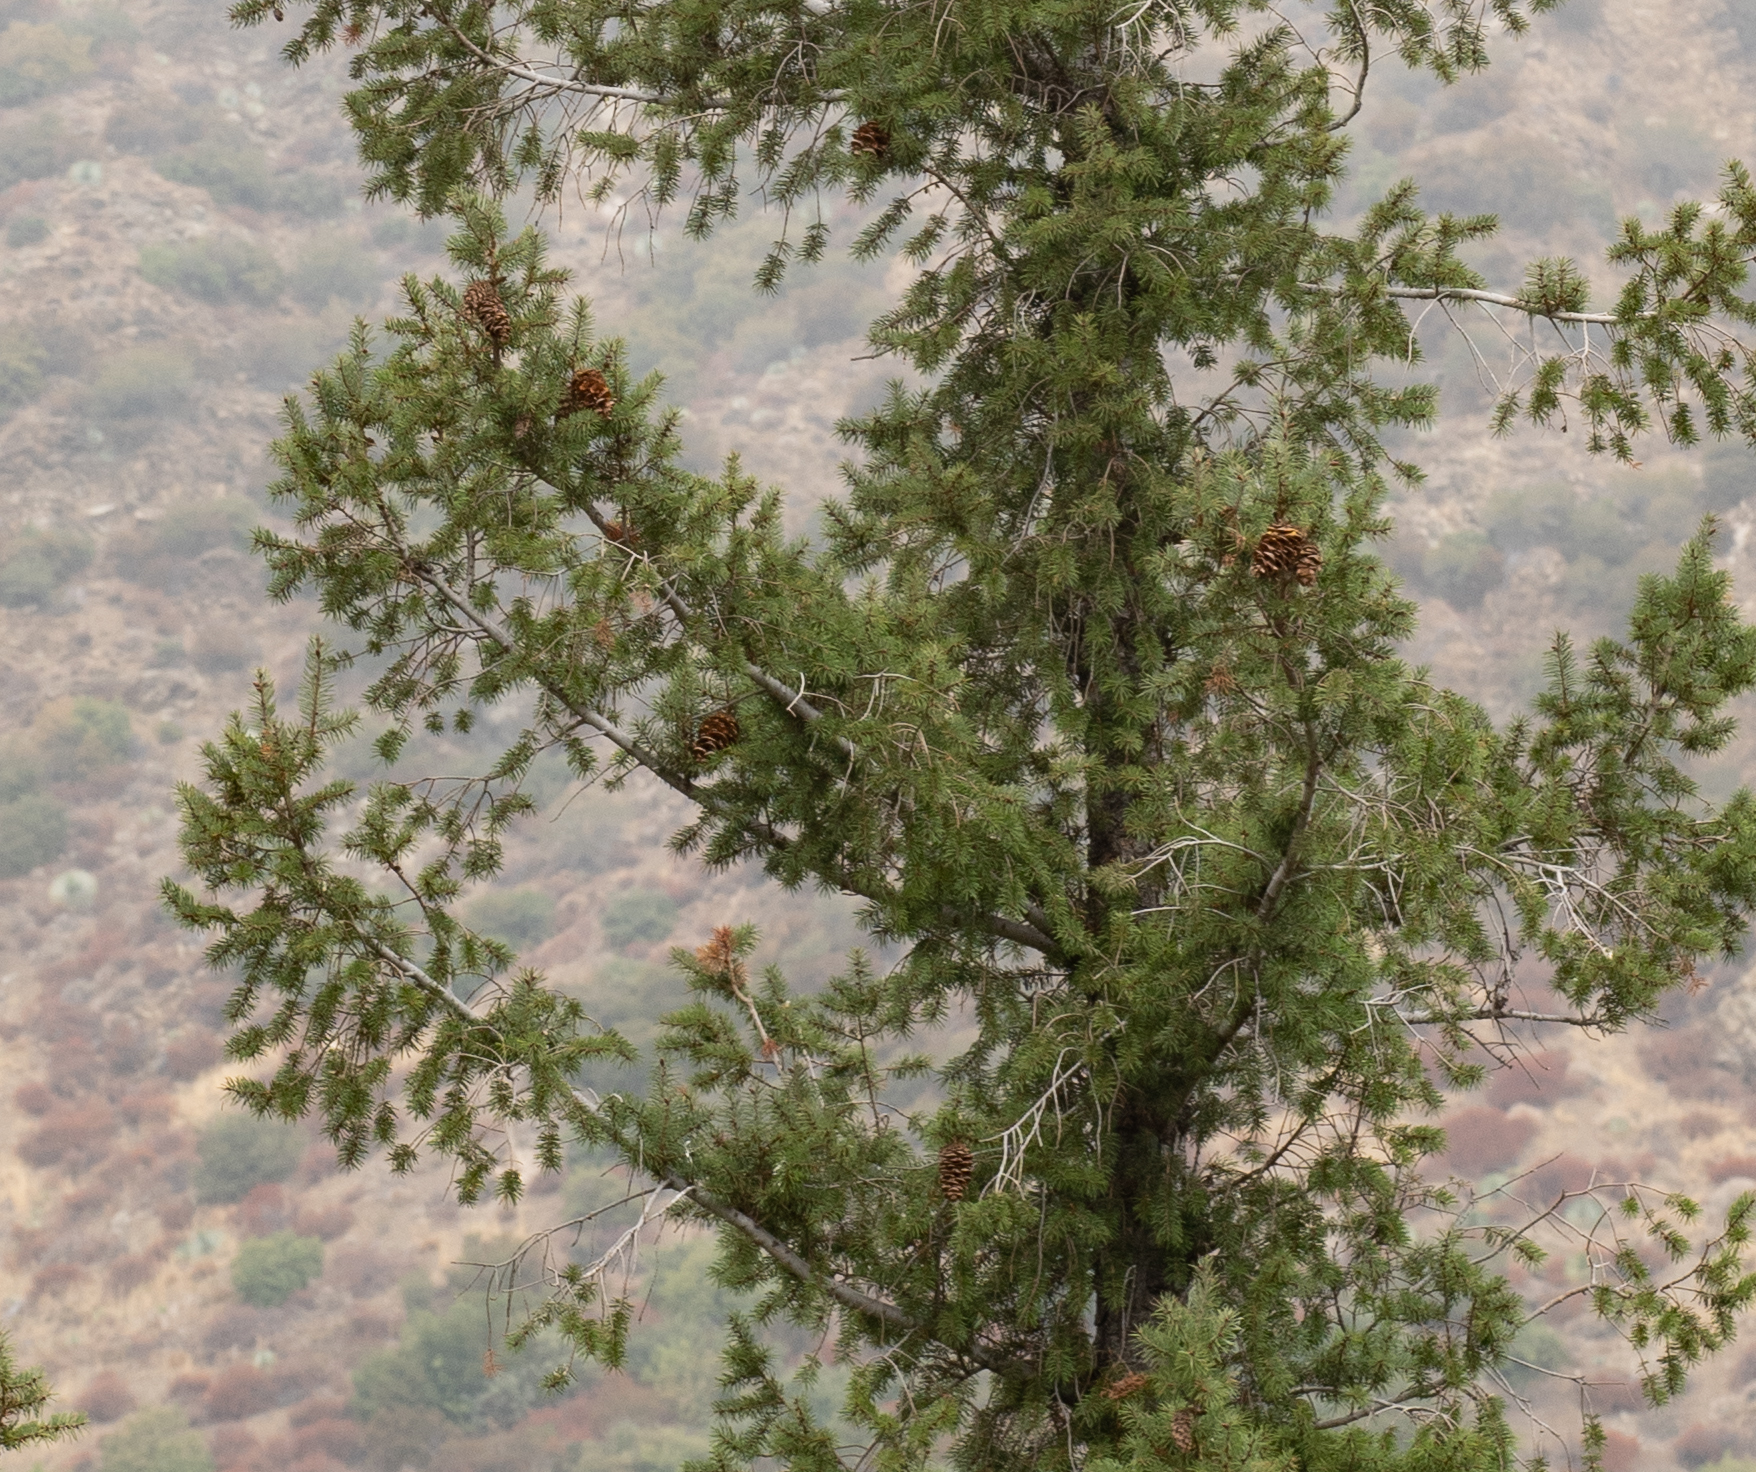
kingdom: Plantae
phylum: Tracheophyta
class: Pinopsida
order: Pinales
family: Pinaceae
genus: Pseudotsuga
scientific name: Pseudotsuga macrocarpa
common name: Big-cone douglas-fir
